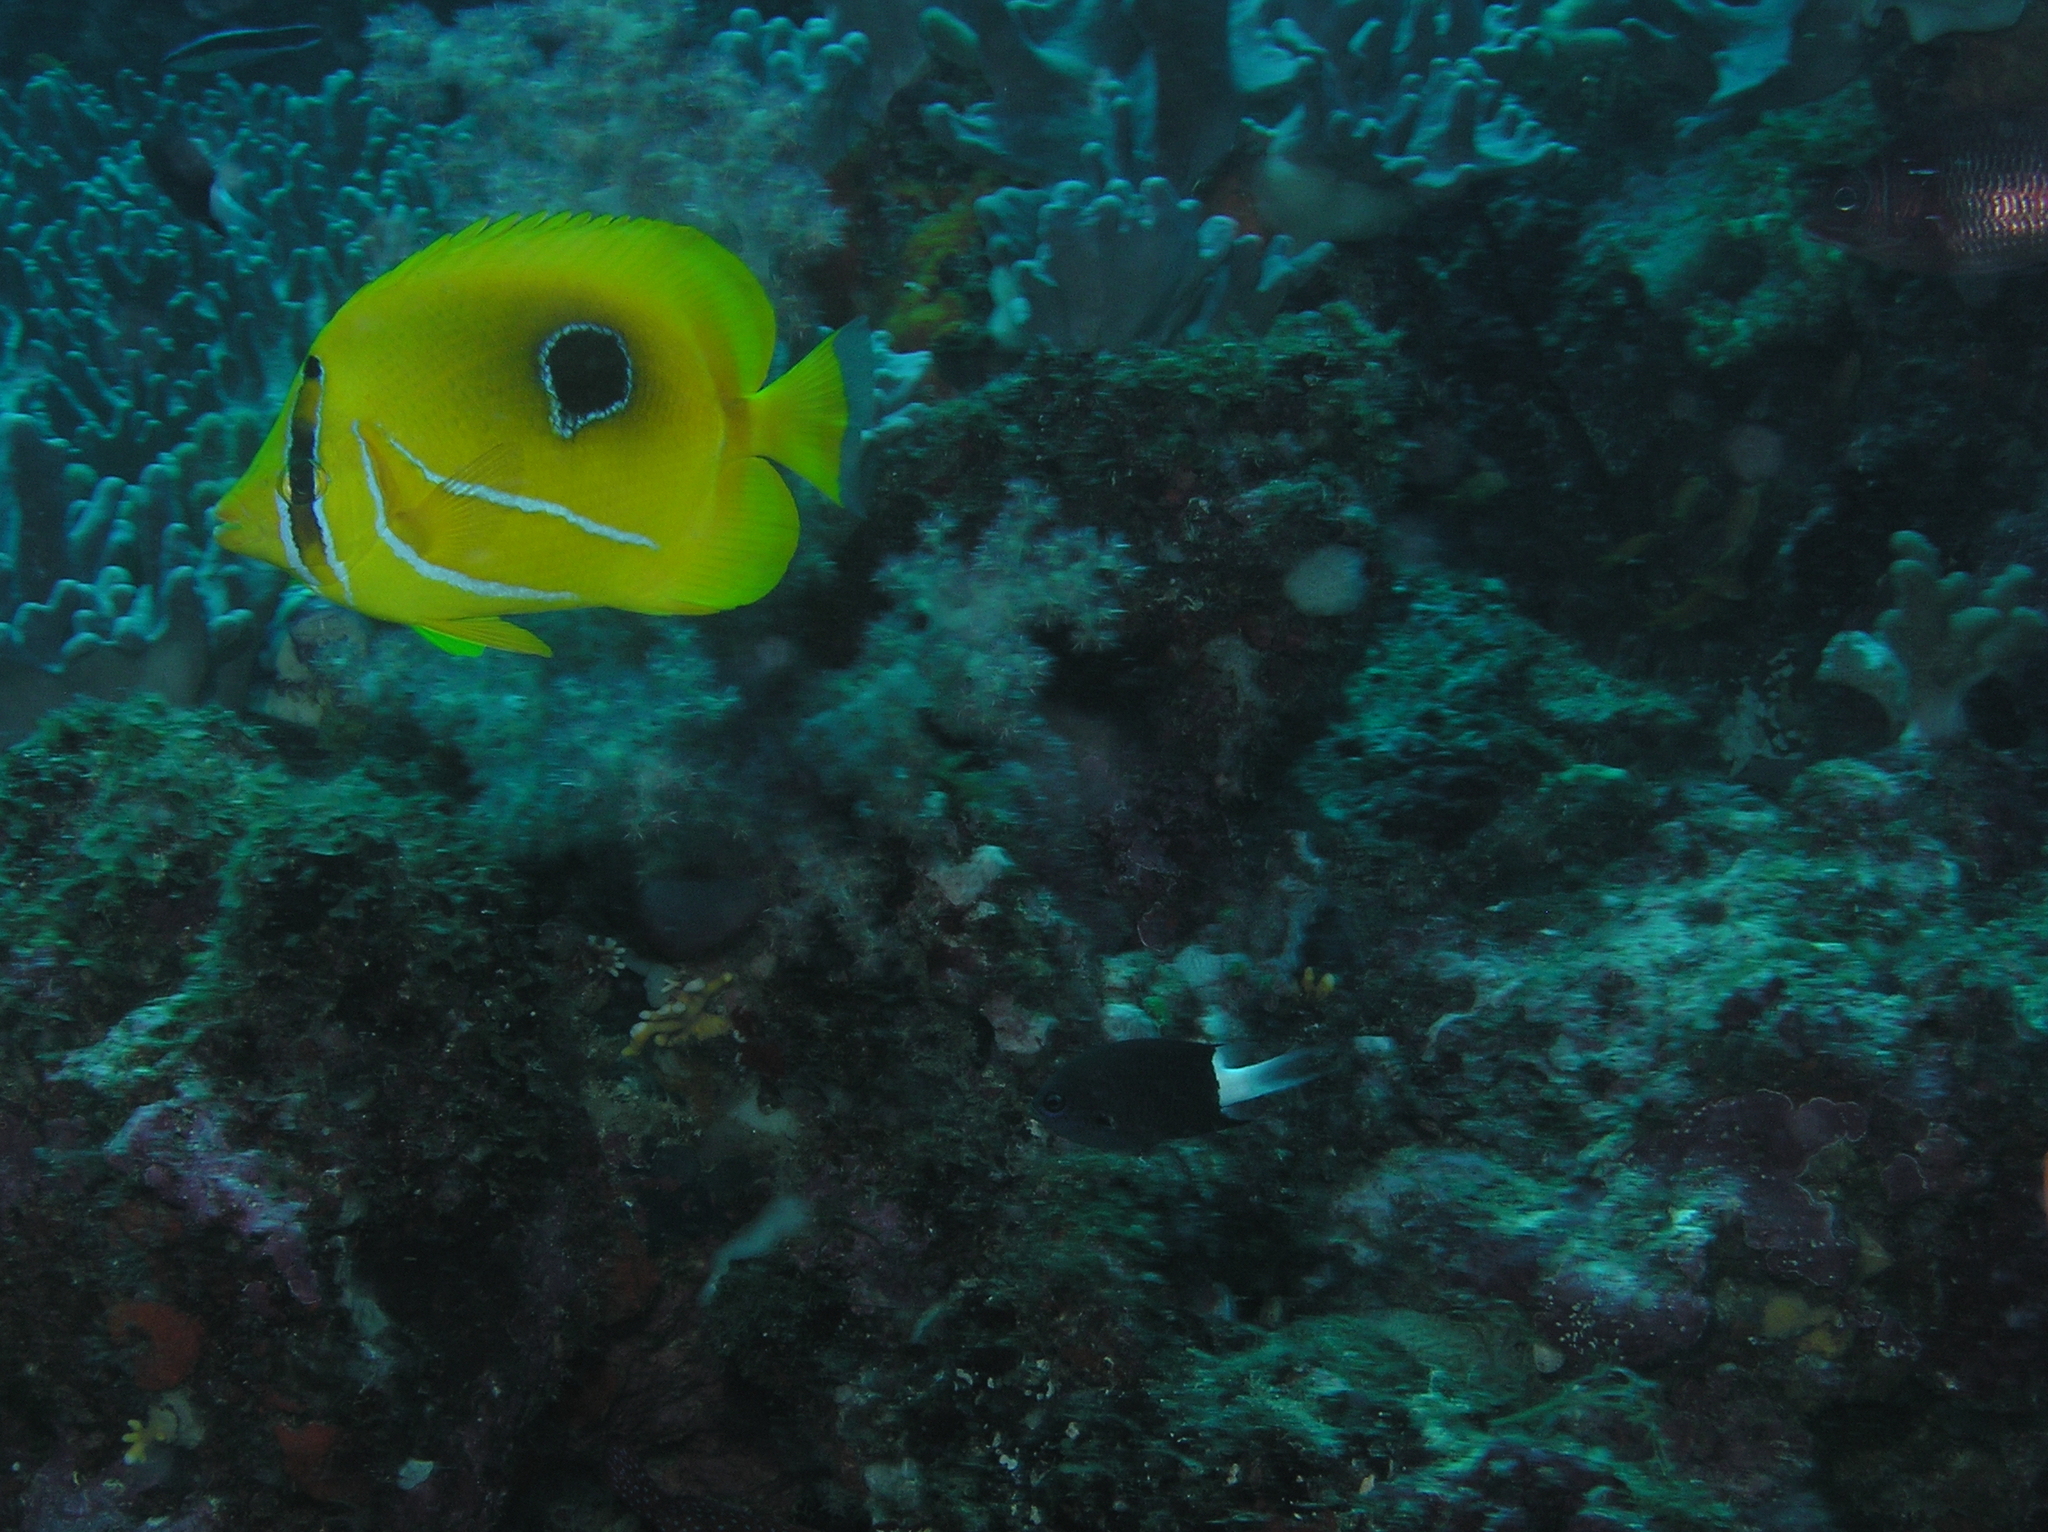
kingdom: Animalia
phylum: Chordata
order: Perciformes
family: Chaetodontidae
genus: Chaetodon
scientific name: Chaetodon bennetti
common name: Bennett's butterflyfish
